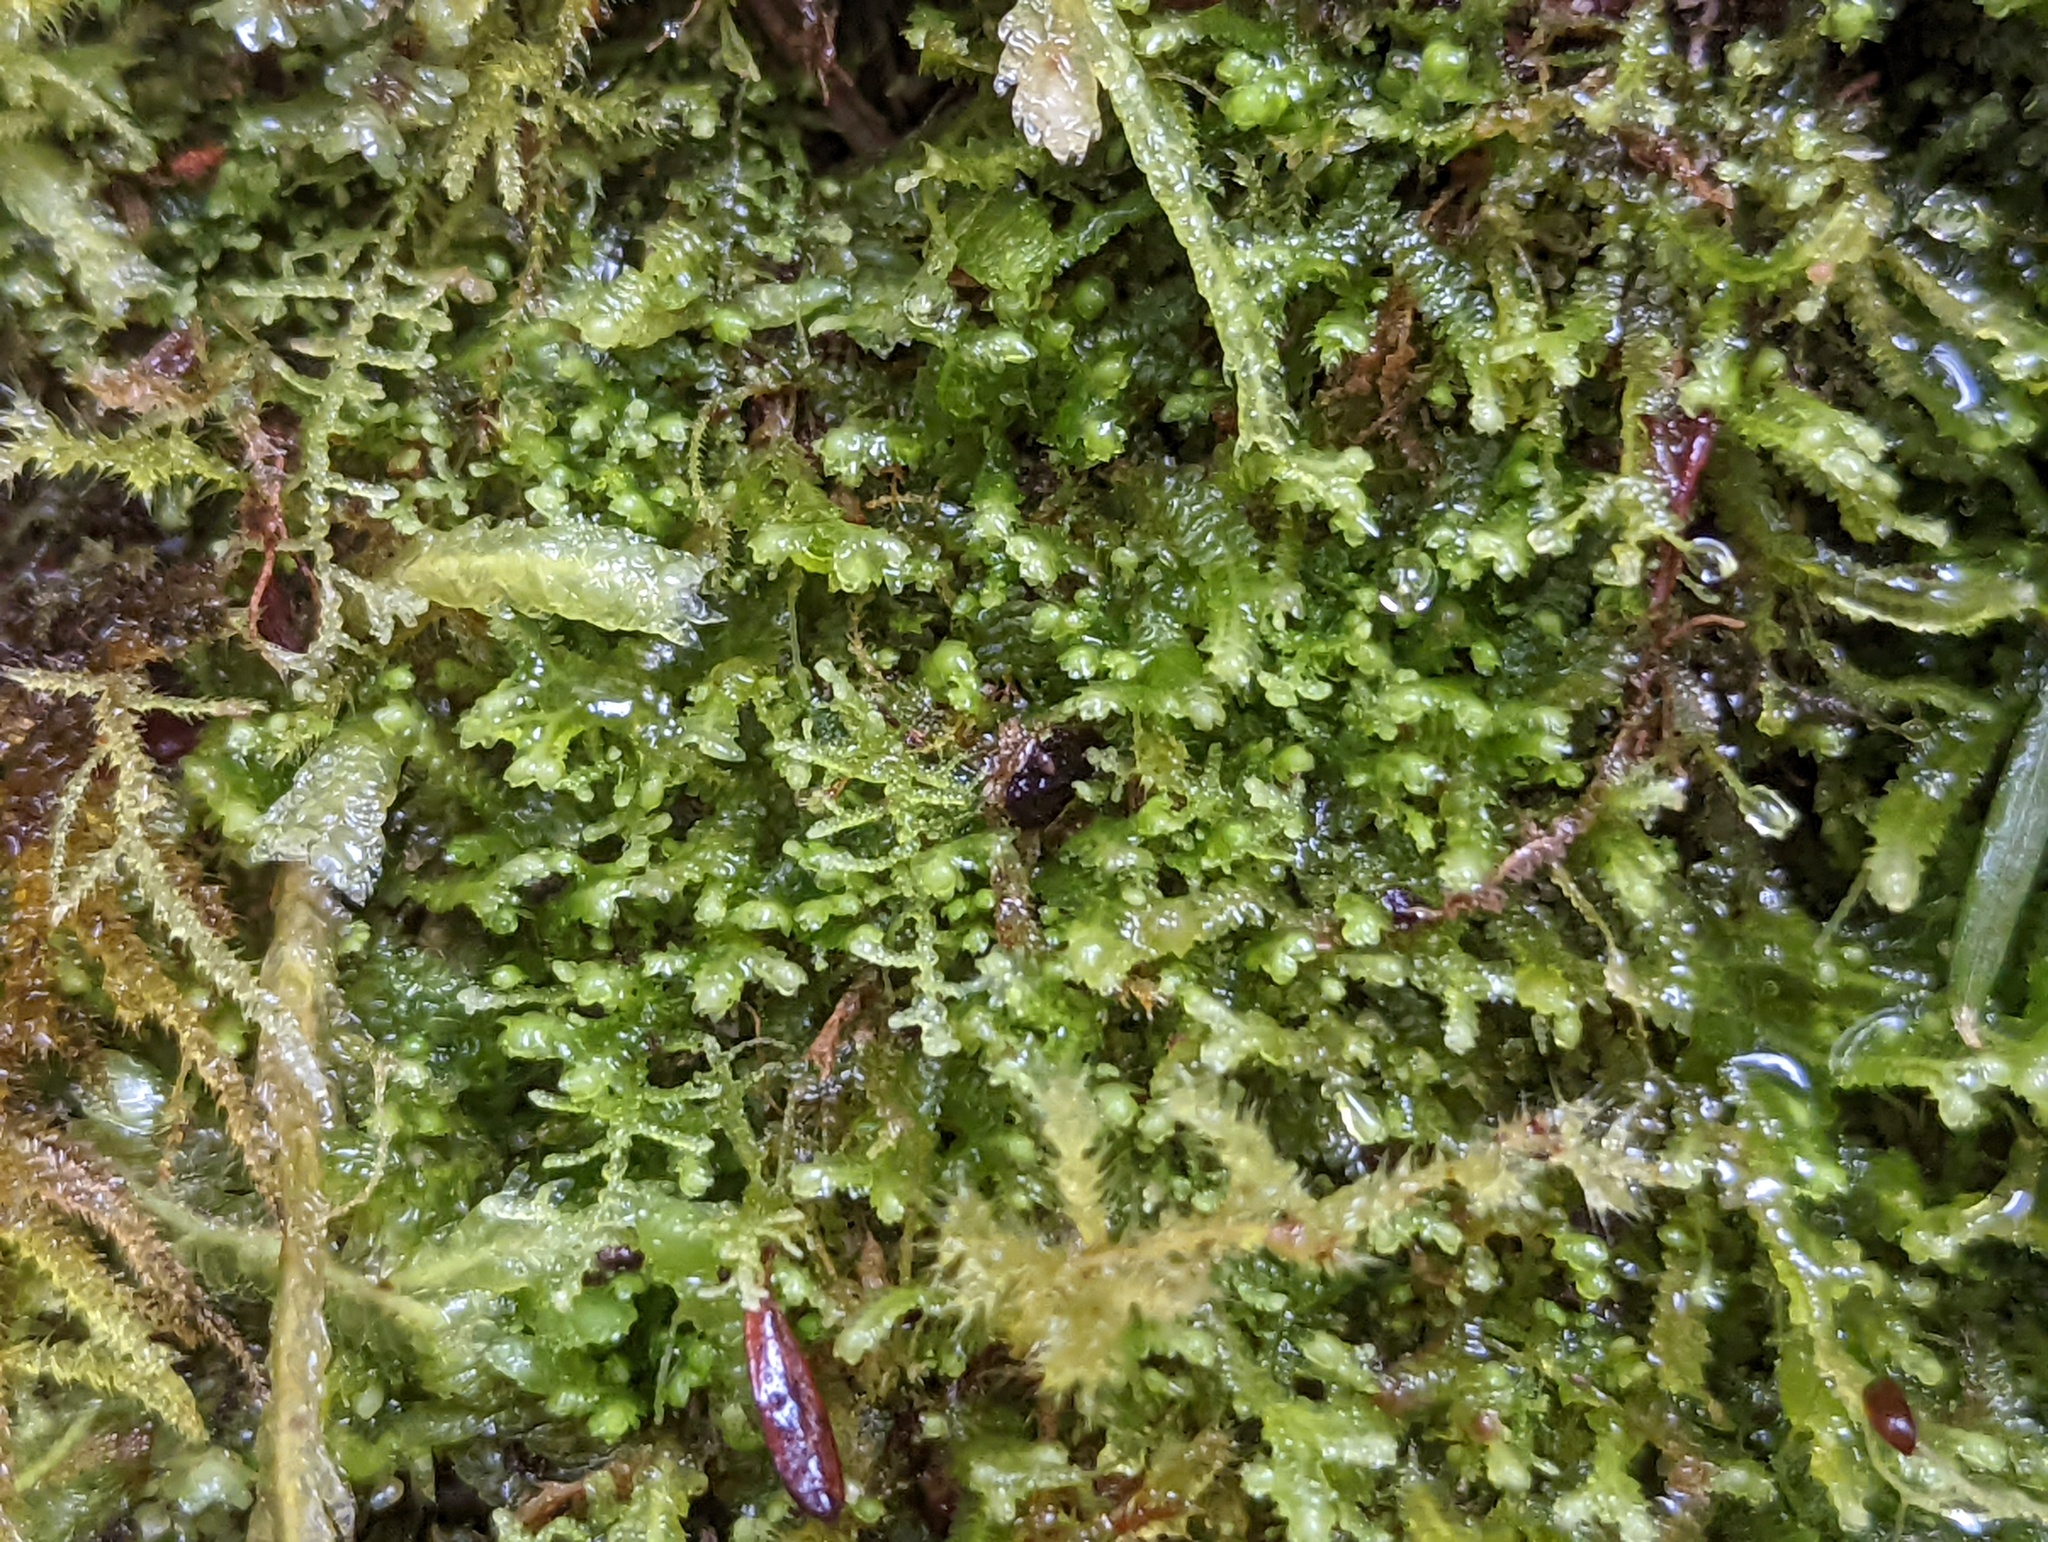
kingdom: Plantae
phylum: Marchantiophyta
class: Jungermanniopsida
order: Jungermanniales
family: Lepidoziaceae
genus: Lepidozia
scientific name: Lepidozia reptans
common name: Creeping fingerwort
